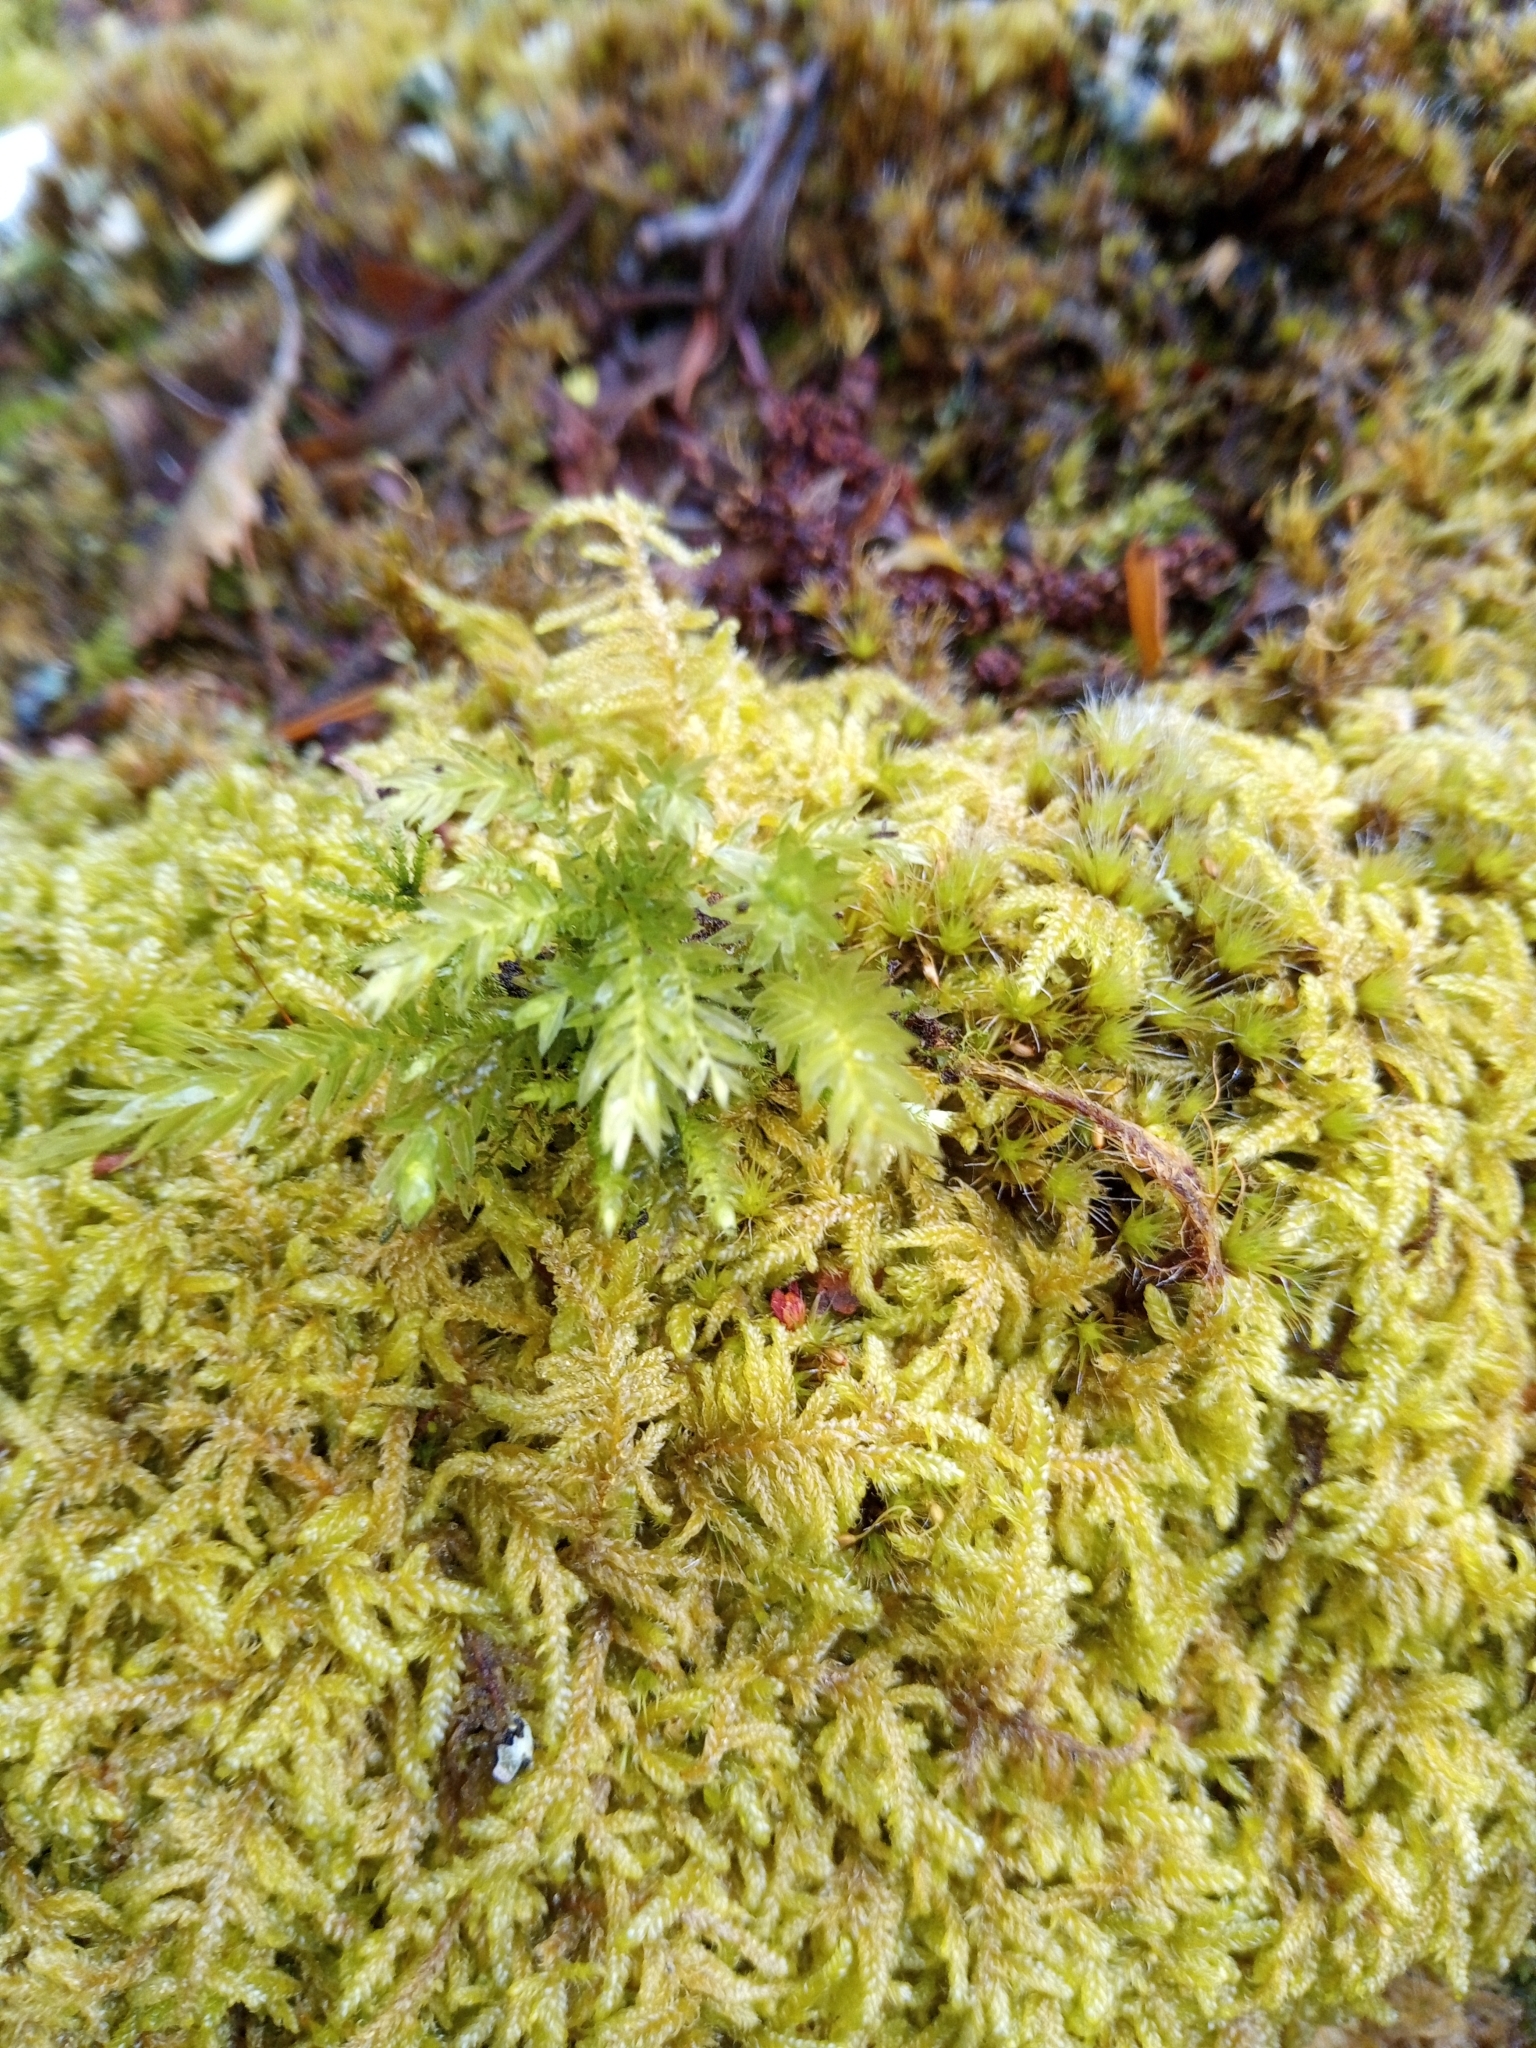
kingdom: Plantae
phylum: Bryophyta
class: Bryopsida
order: Bryales
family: Mniaceae
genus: Mnium
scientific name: Mnium hornum
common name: Swan's-neck leafy moss
